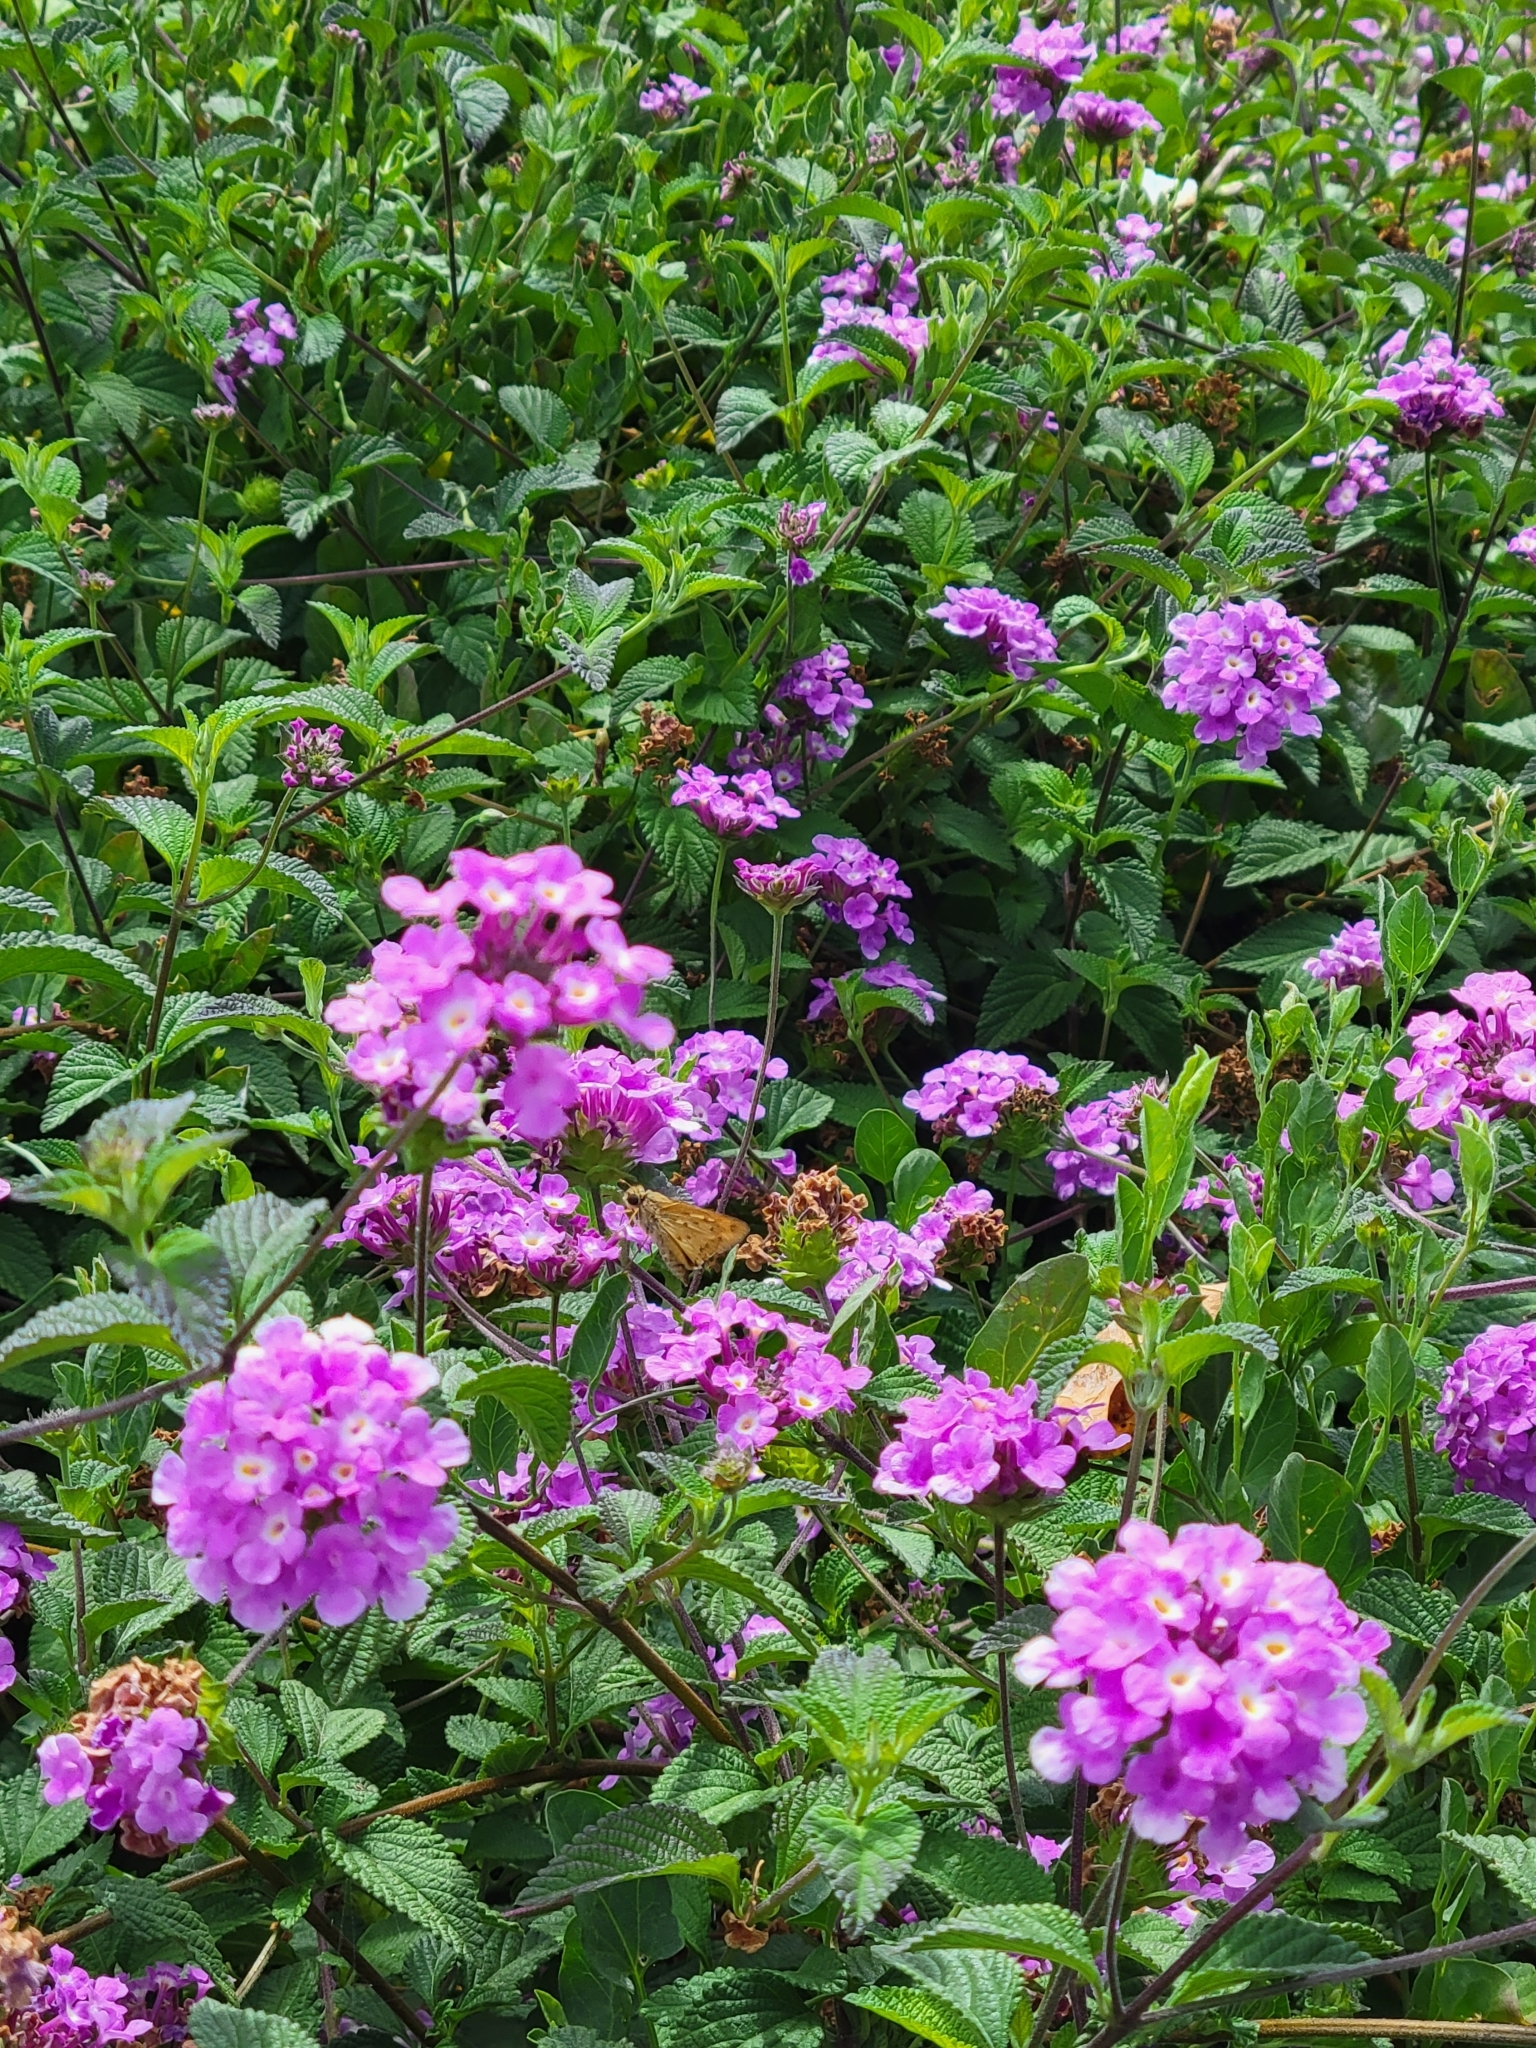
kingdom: Animalia
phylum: Arthropoda
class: Insecta
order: Lepidoptera
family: Hesperiidae
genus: Hylephila
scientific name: Hylephila phyleus
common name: Fiery skipper
